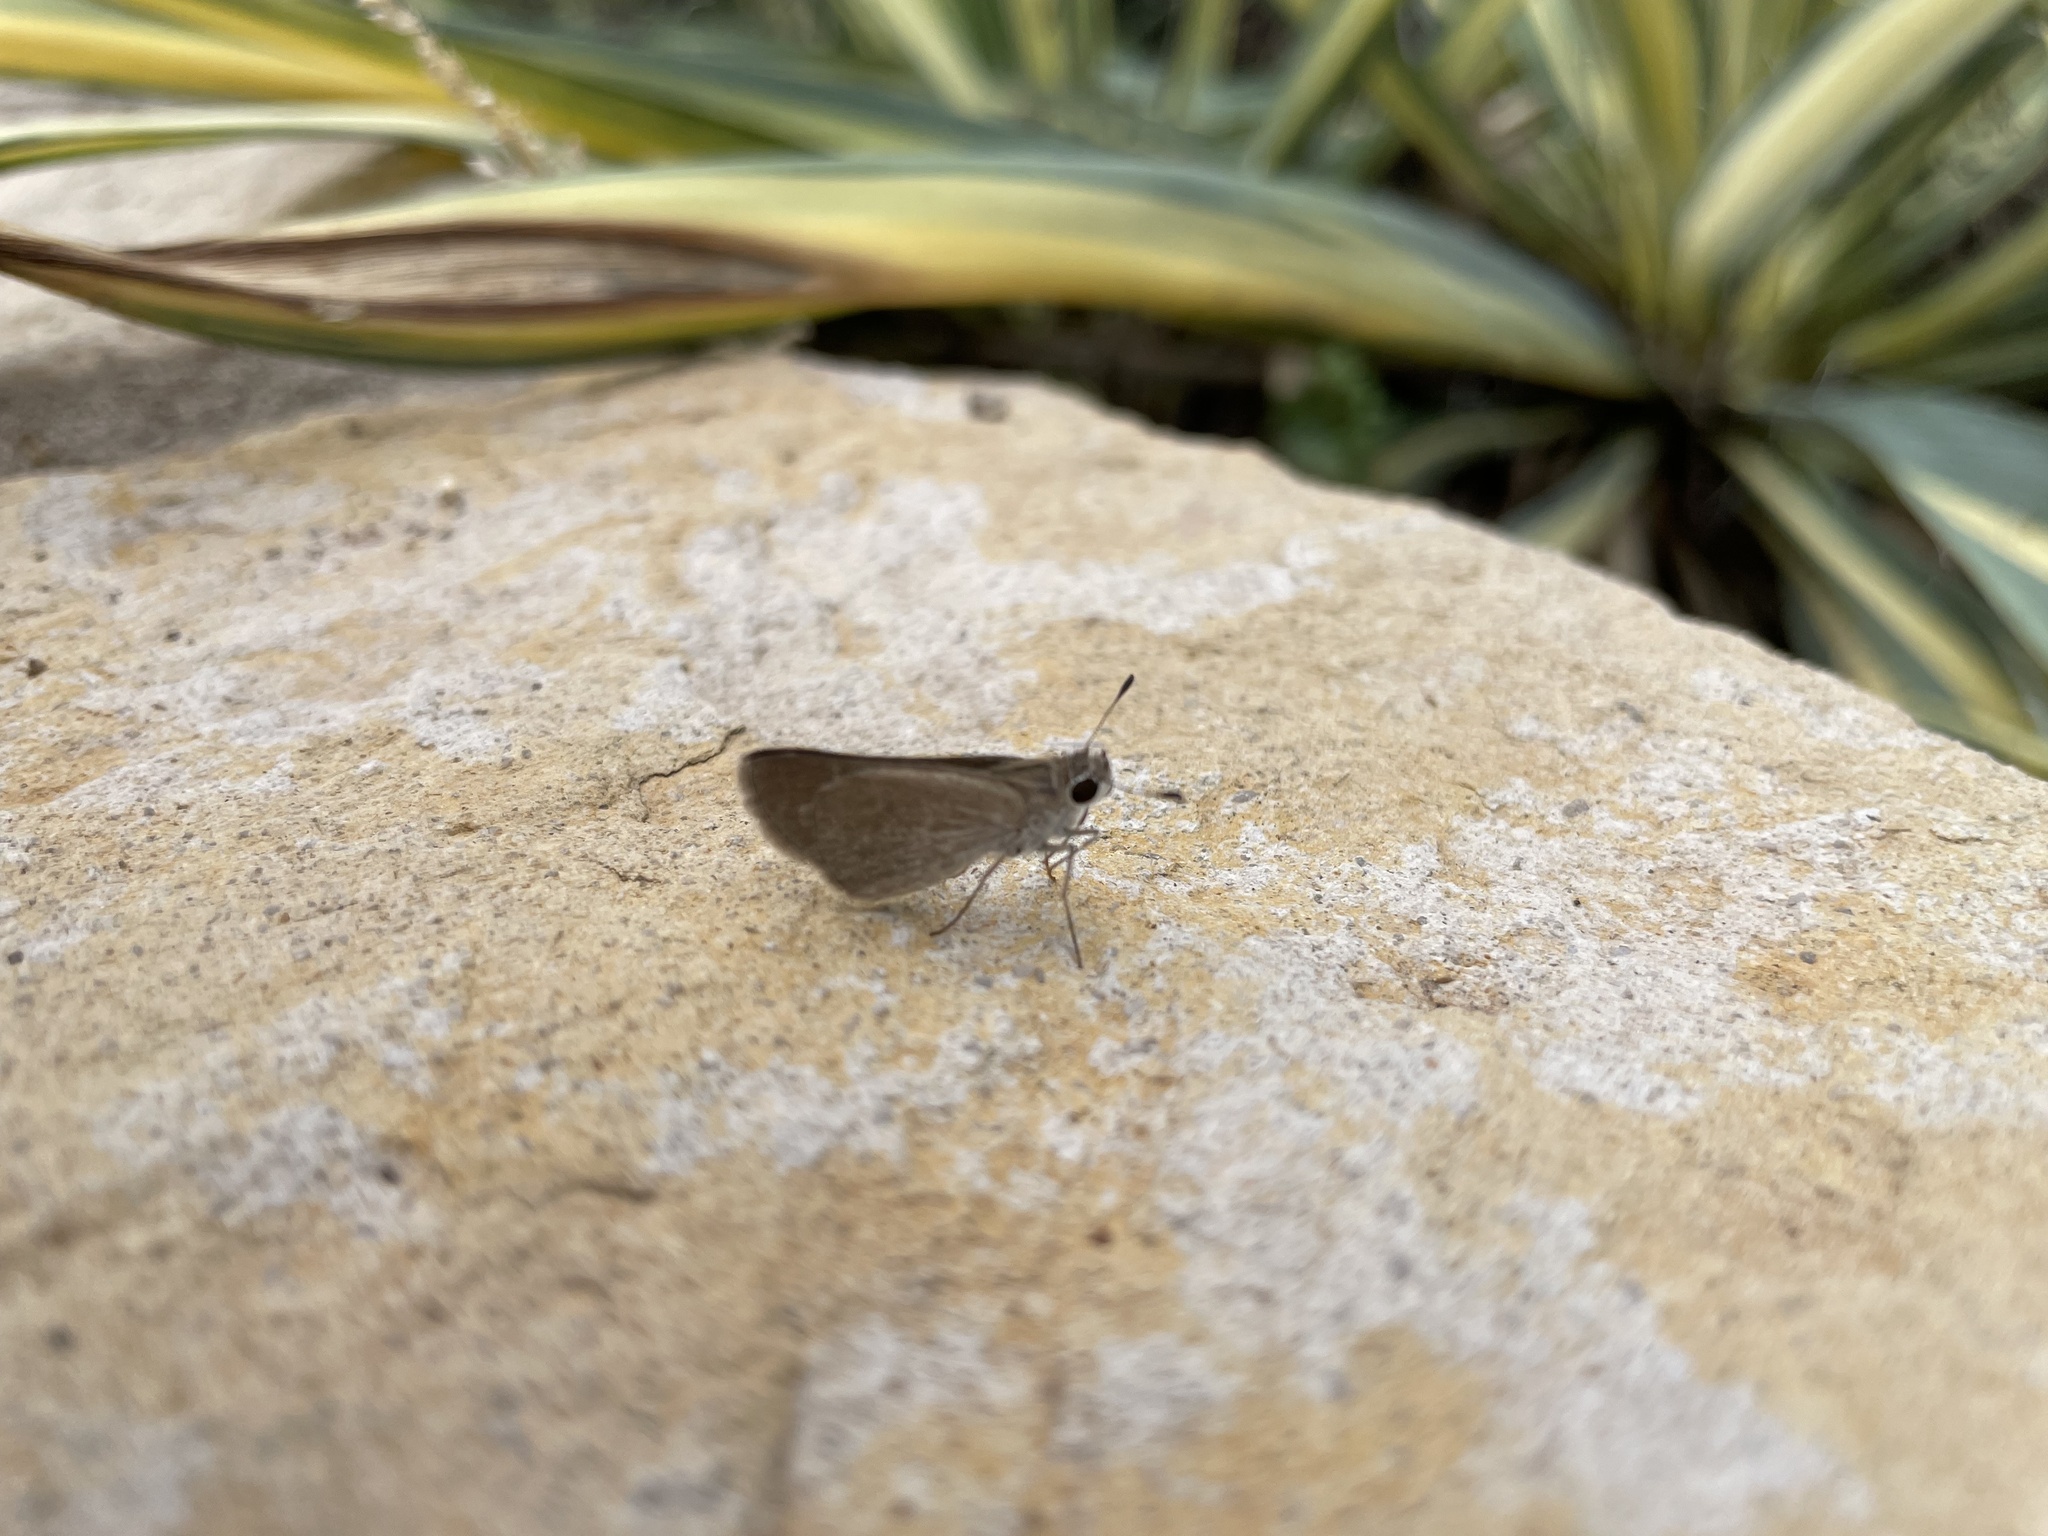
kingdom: Animalia
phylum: Arthropoda
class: Insecta
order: Lepidoptera
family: Hesperiidae
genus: Lerodea
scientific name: Lerodea eufala
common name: Eufala skipper
